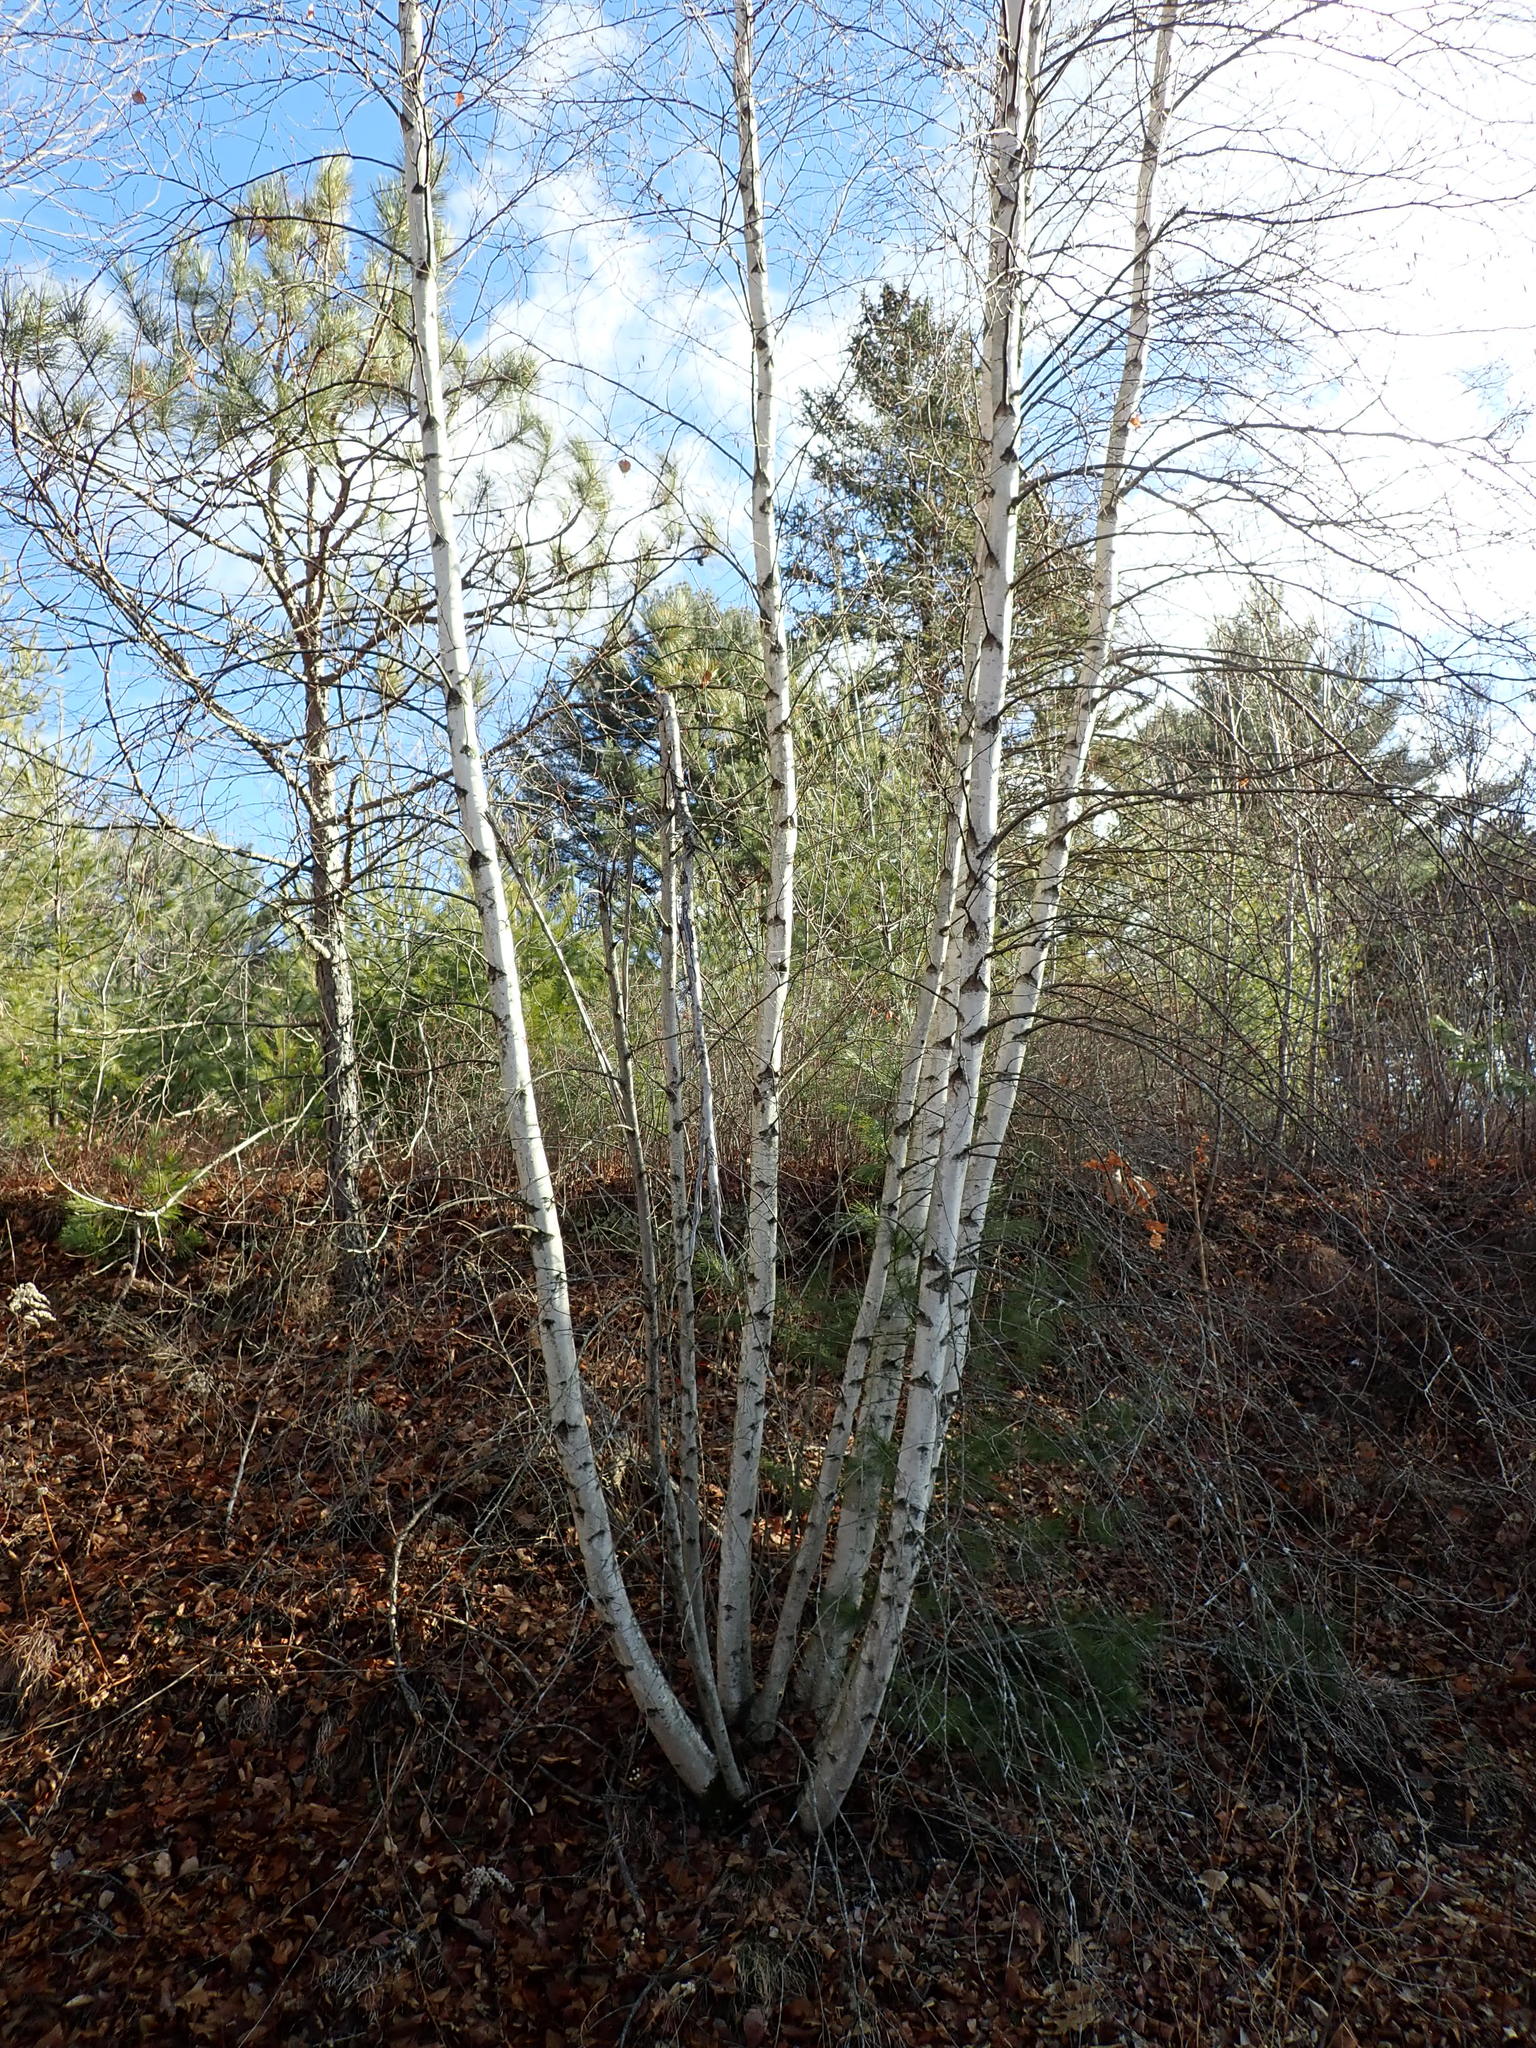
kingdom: Plantae
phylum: Tracheophyta
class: Magnoliopsida
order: Fagales
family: Betulaceae
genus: Betula
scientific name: Betula populifolia
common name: Fire birch
